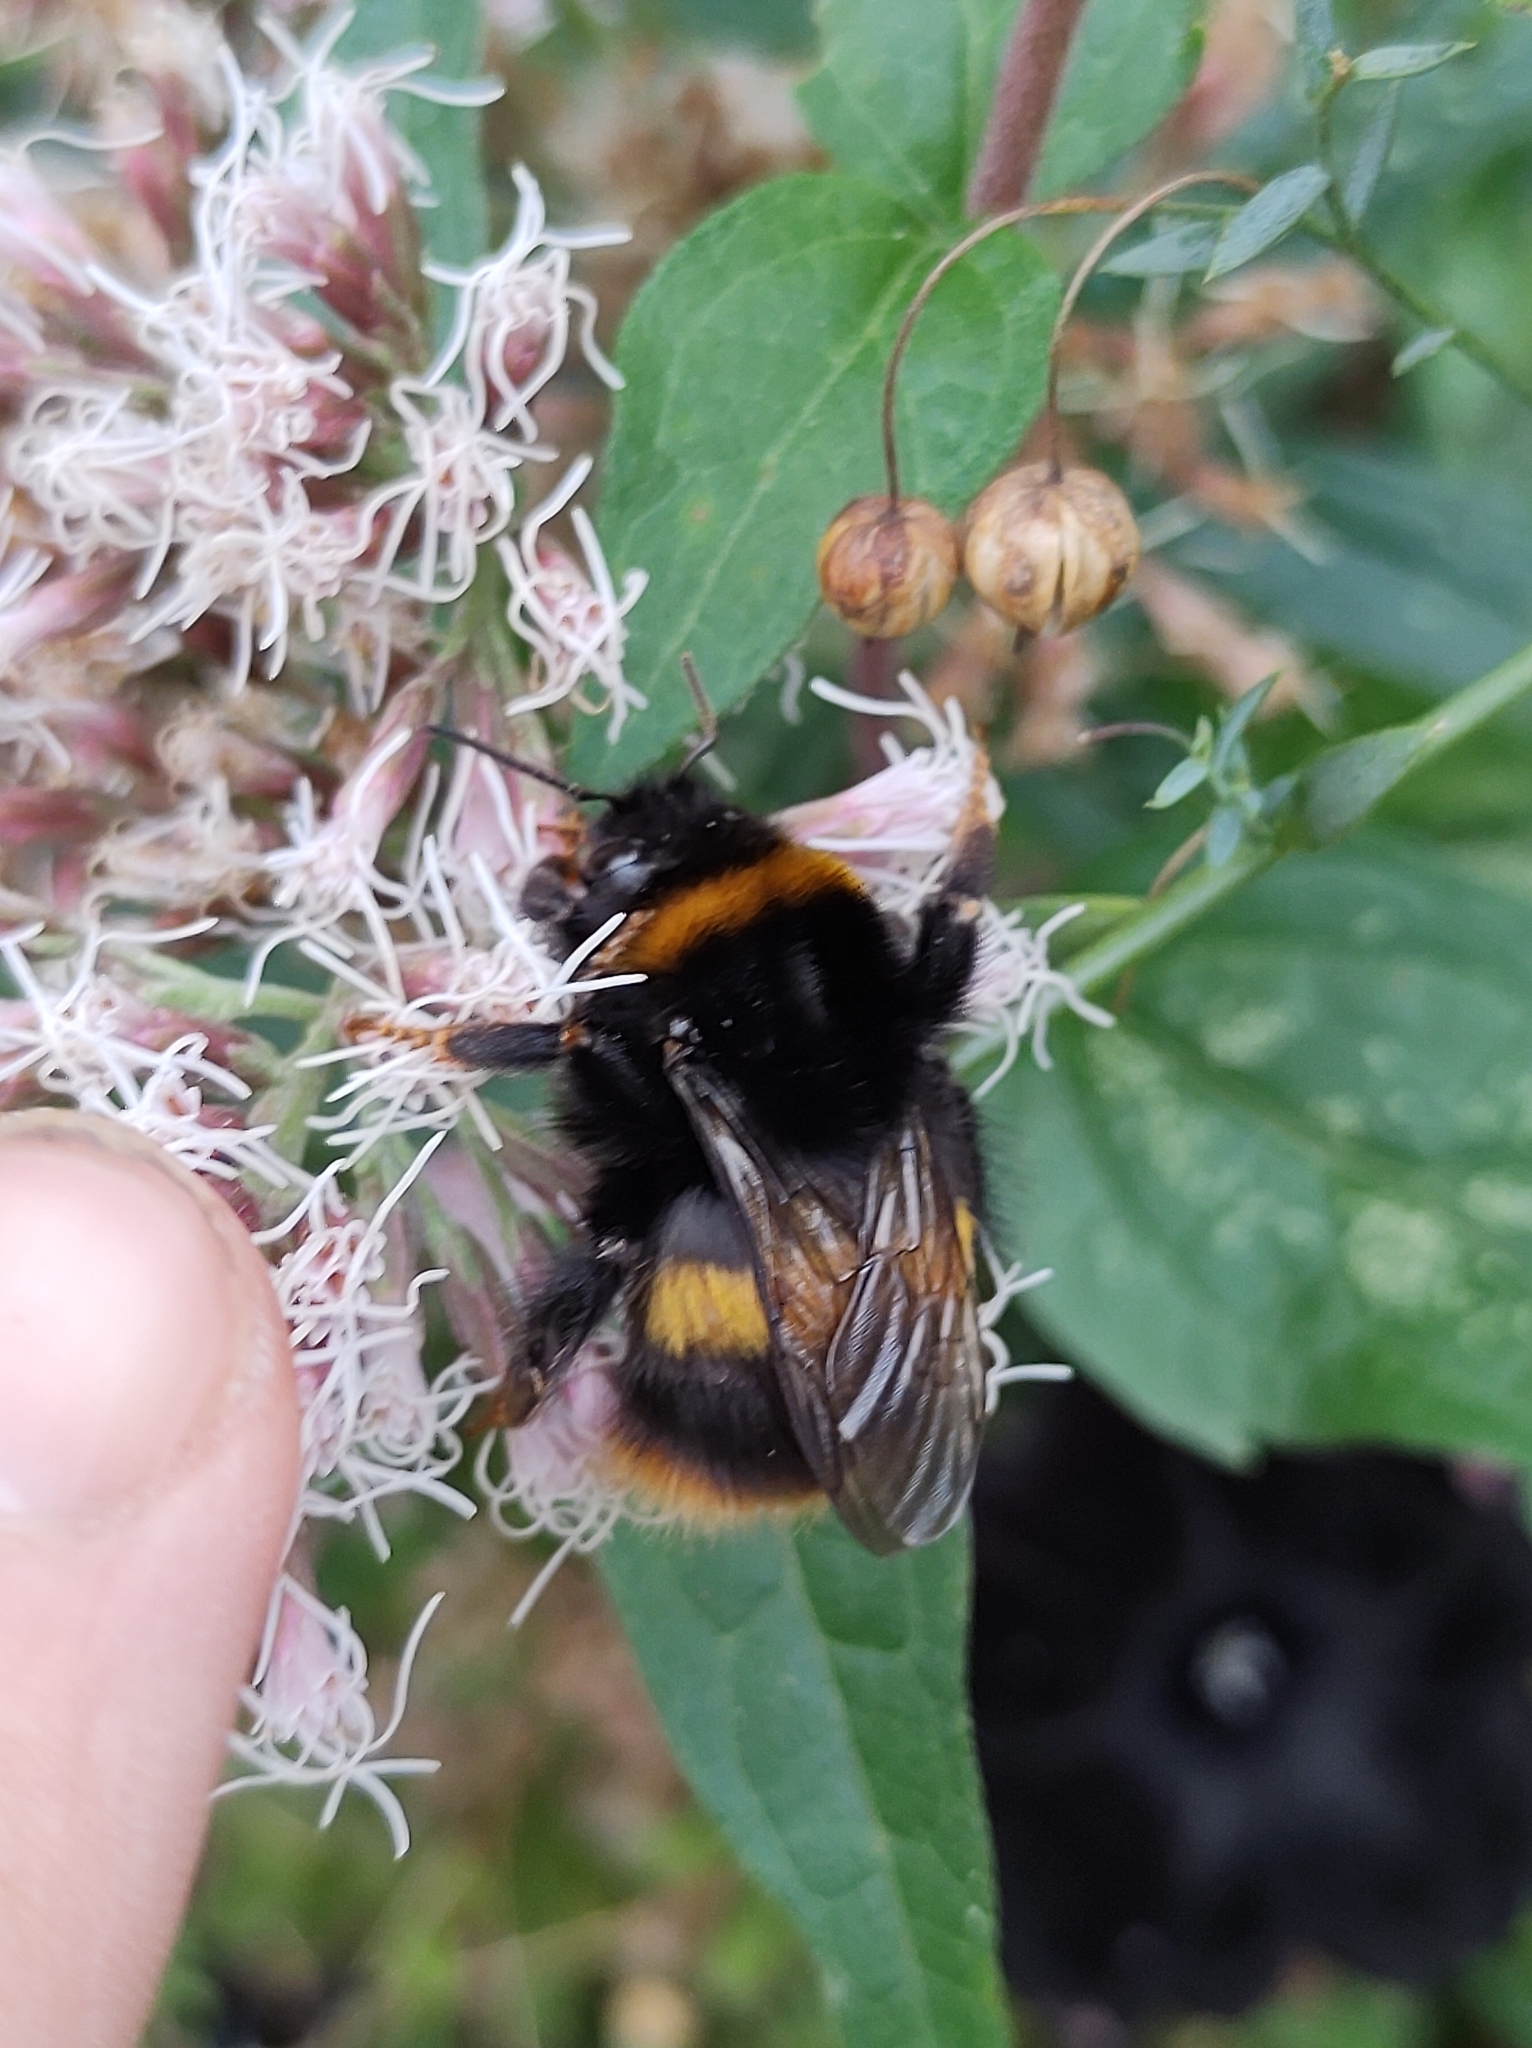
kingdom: Animalia
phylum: Arthropoda
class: Insecta
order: Hymenoptera
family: Apidae
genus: Bombus
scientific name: Bombus terrestris
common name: Buff-tailed bumblebee
